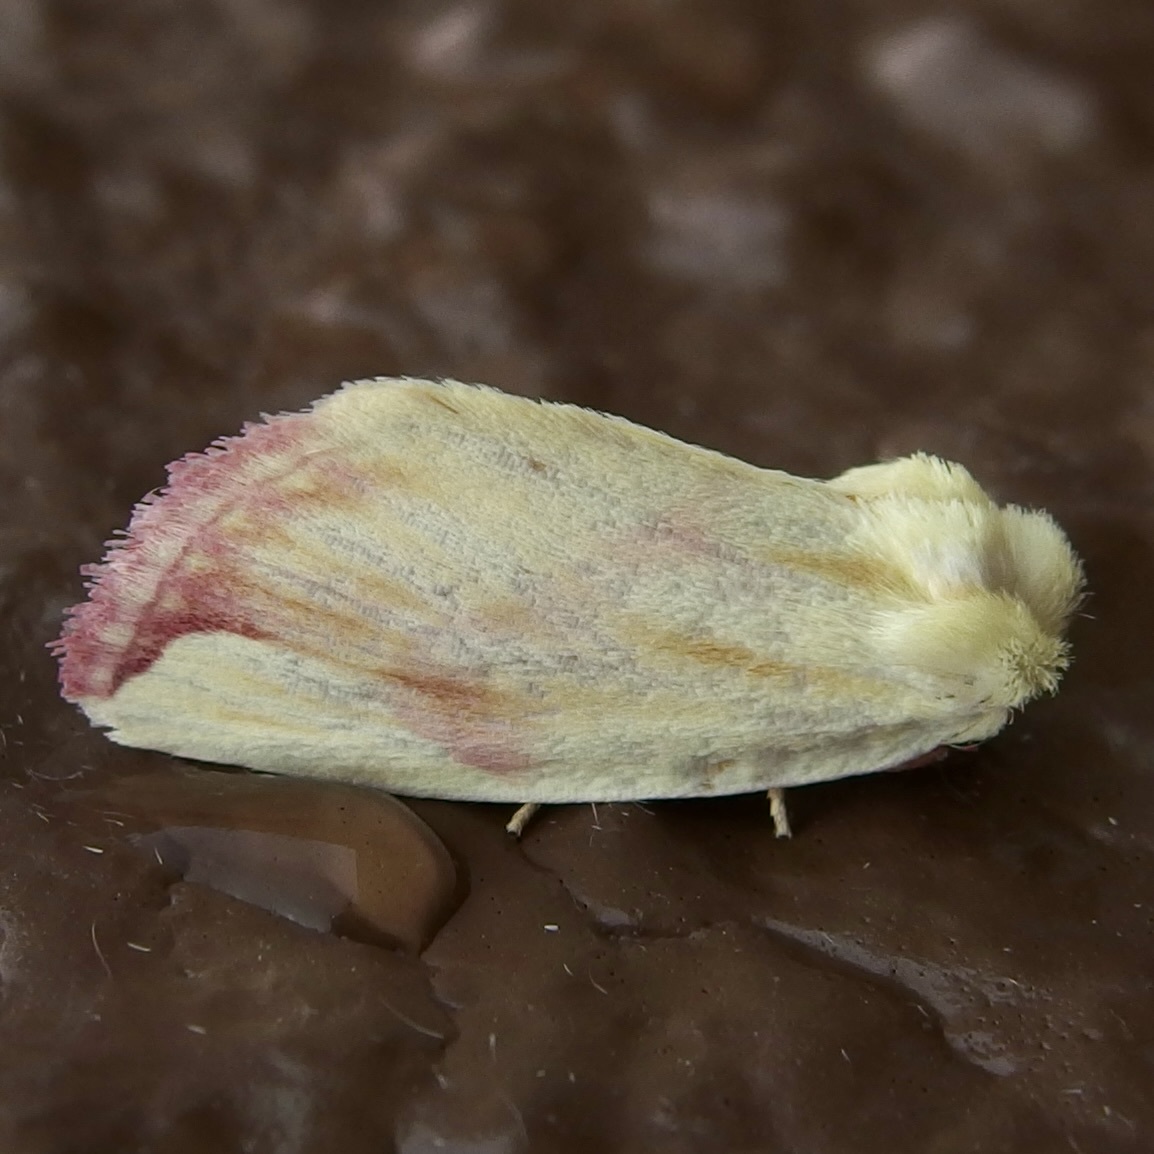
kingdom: Animalia
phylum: Arthropoda
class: Insecta
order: Lepidoptera
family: Noctuidae
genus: Thurberiphaga
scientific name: Thurberiphaga diffusa
